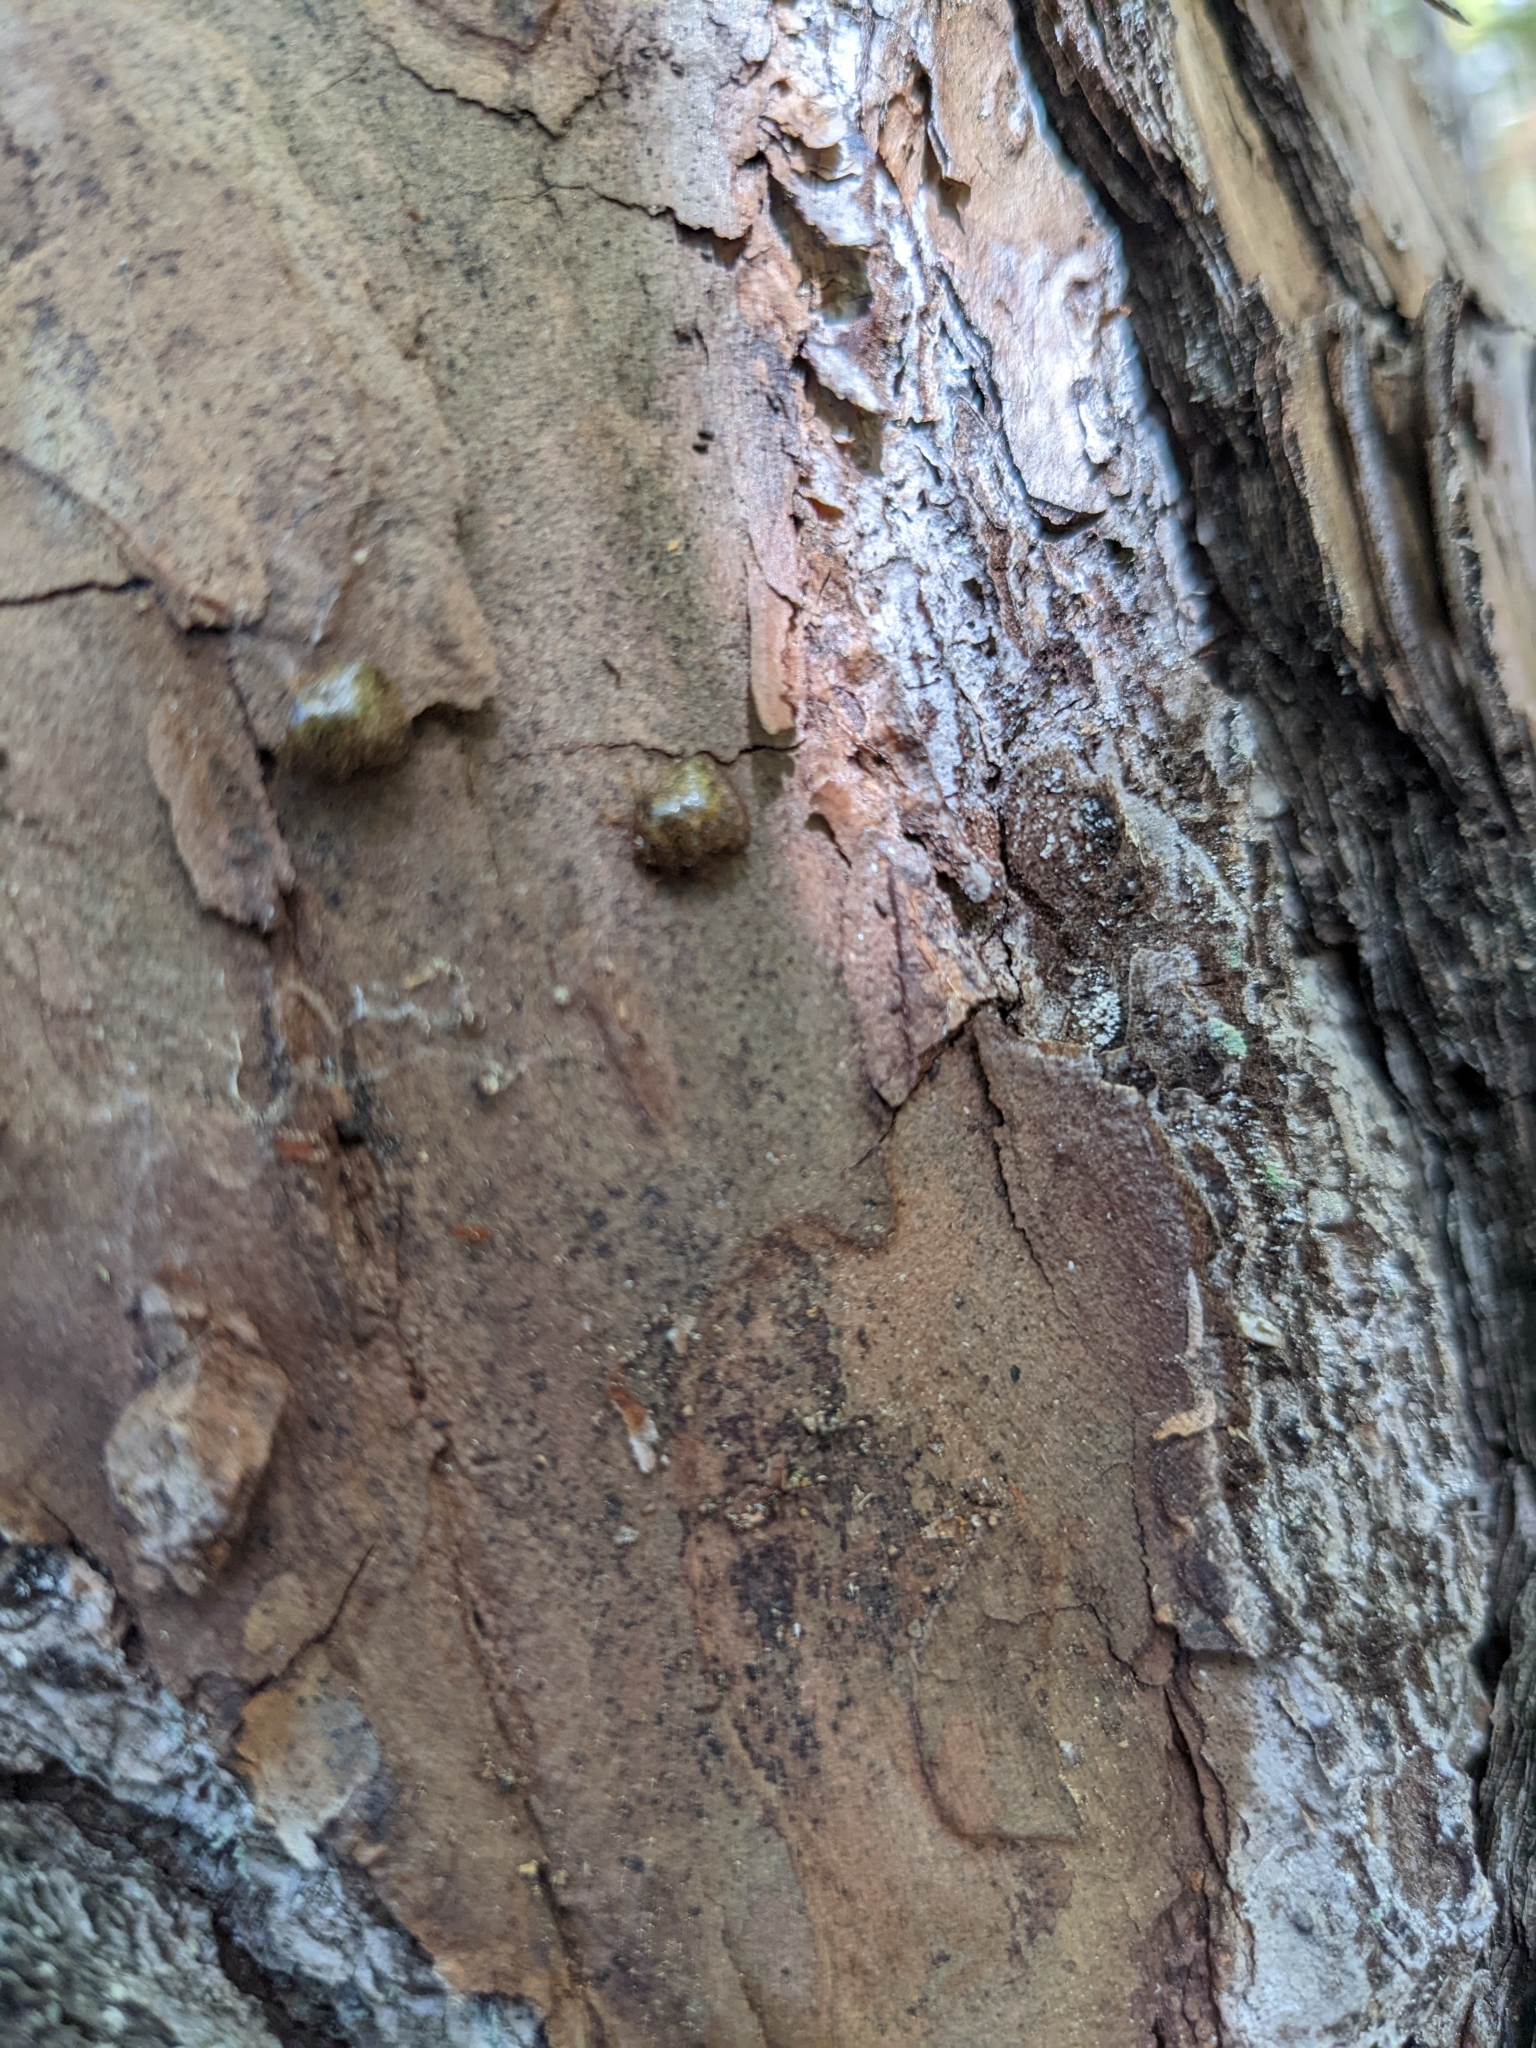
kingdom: Animalia
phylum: Arthropoda
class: Insecta
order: Hemiptera
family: Plataspidae
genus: Megacopta
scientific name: Megacopta cribraria
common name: Bean plataspid
